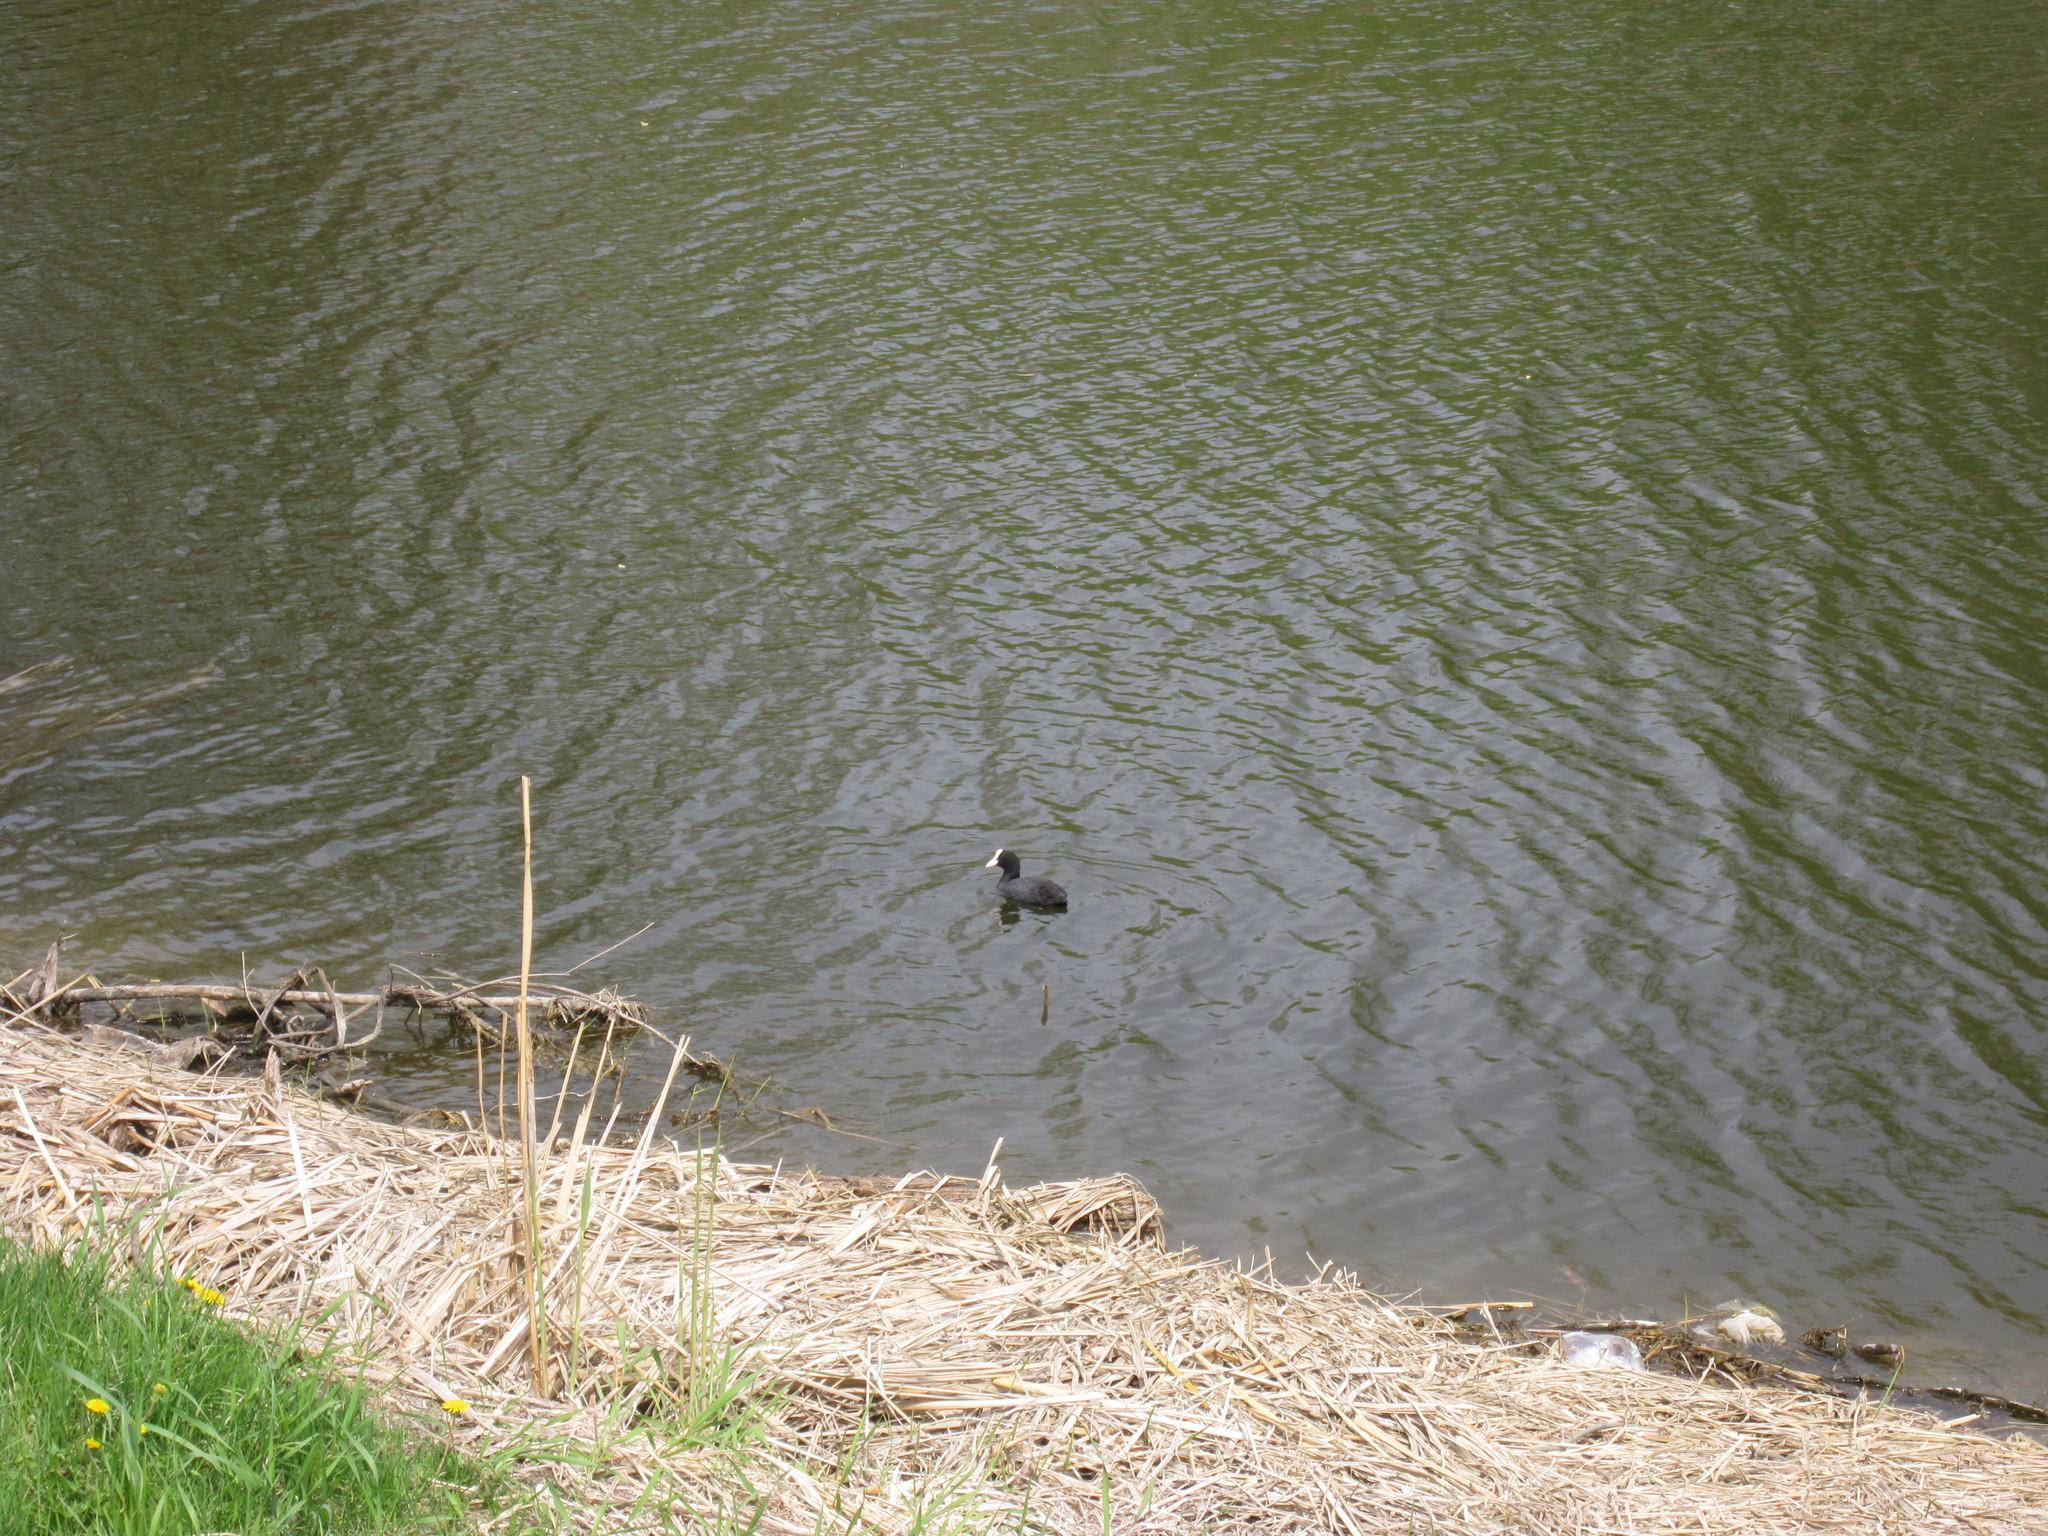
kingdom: Animalia
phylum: Chordata
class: Aves
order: Gruiformes
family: Rallidae
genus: Fulica
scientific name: Fulica atra
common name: Eurasian coot
